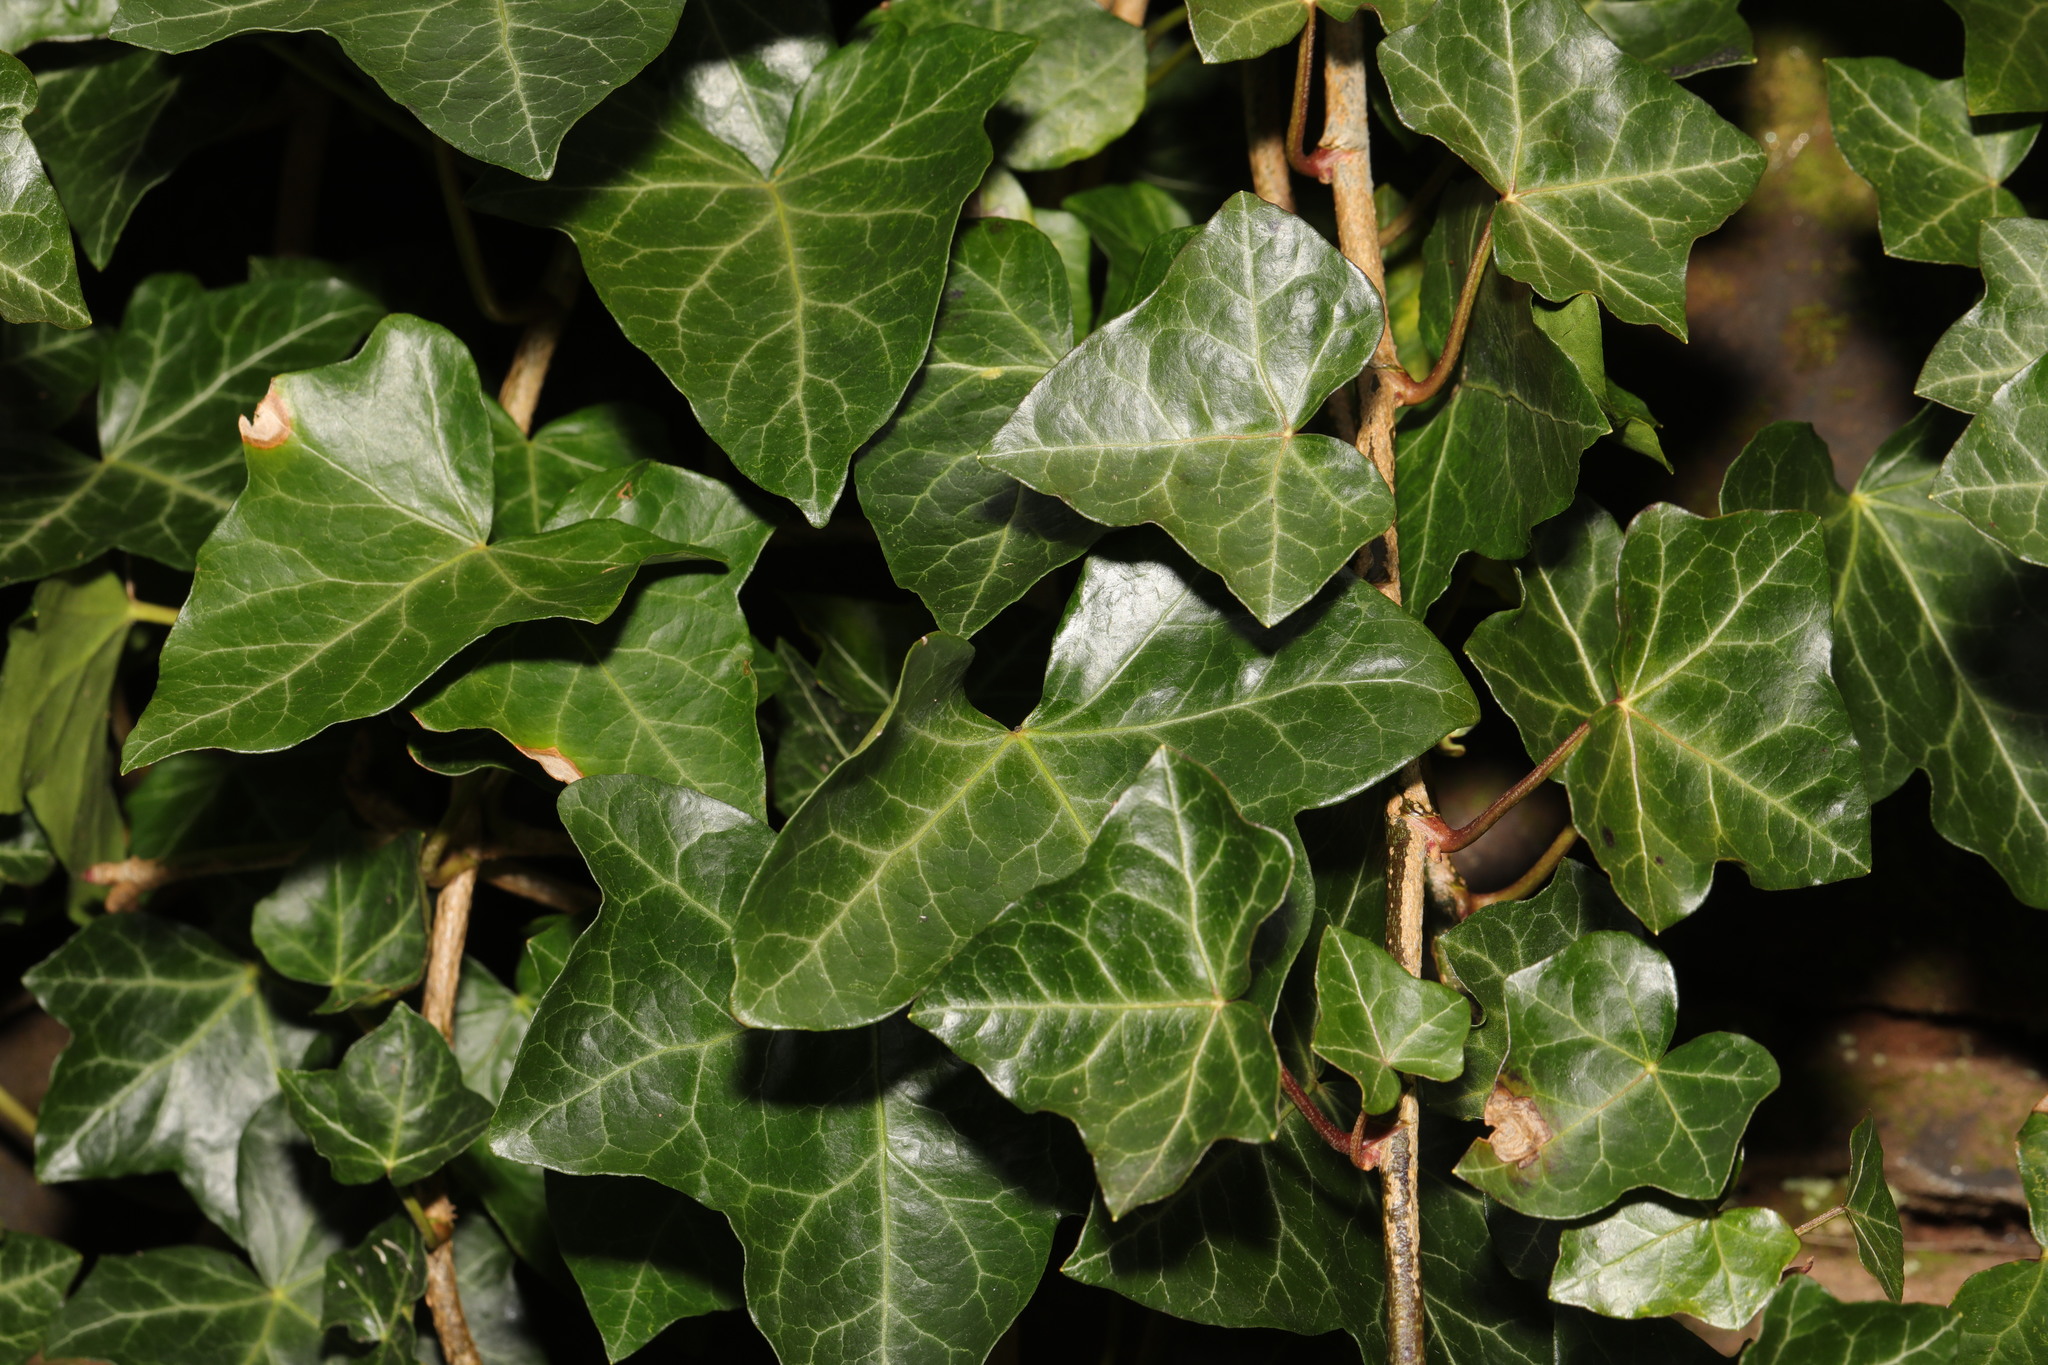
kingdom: Plantae
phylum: Tracheophyta
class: Magnoliopsida
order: Apiales
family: Araliaceae
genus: Hedera
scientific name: Hedera helix
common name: Ivy
